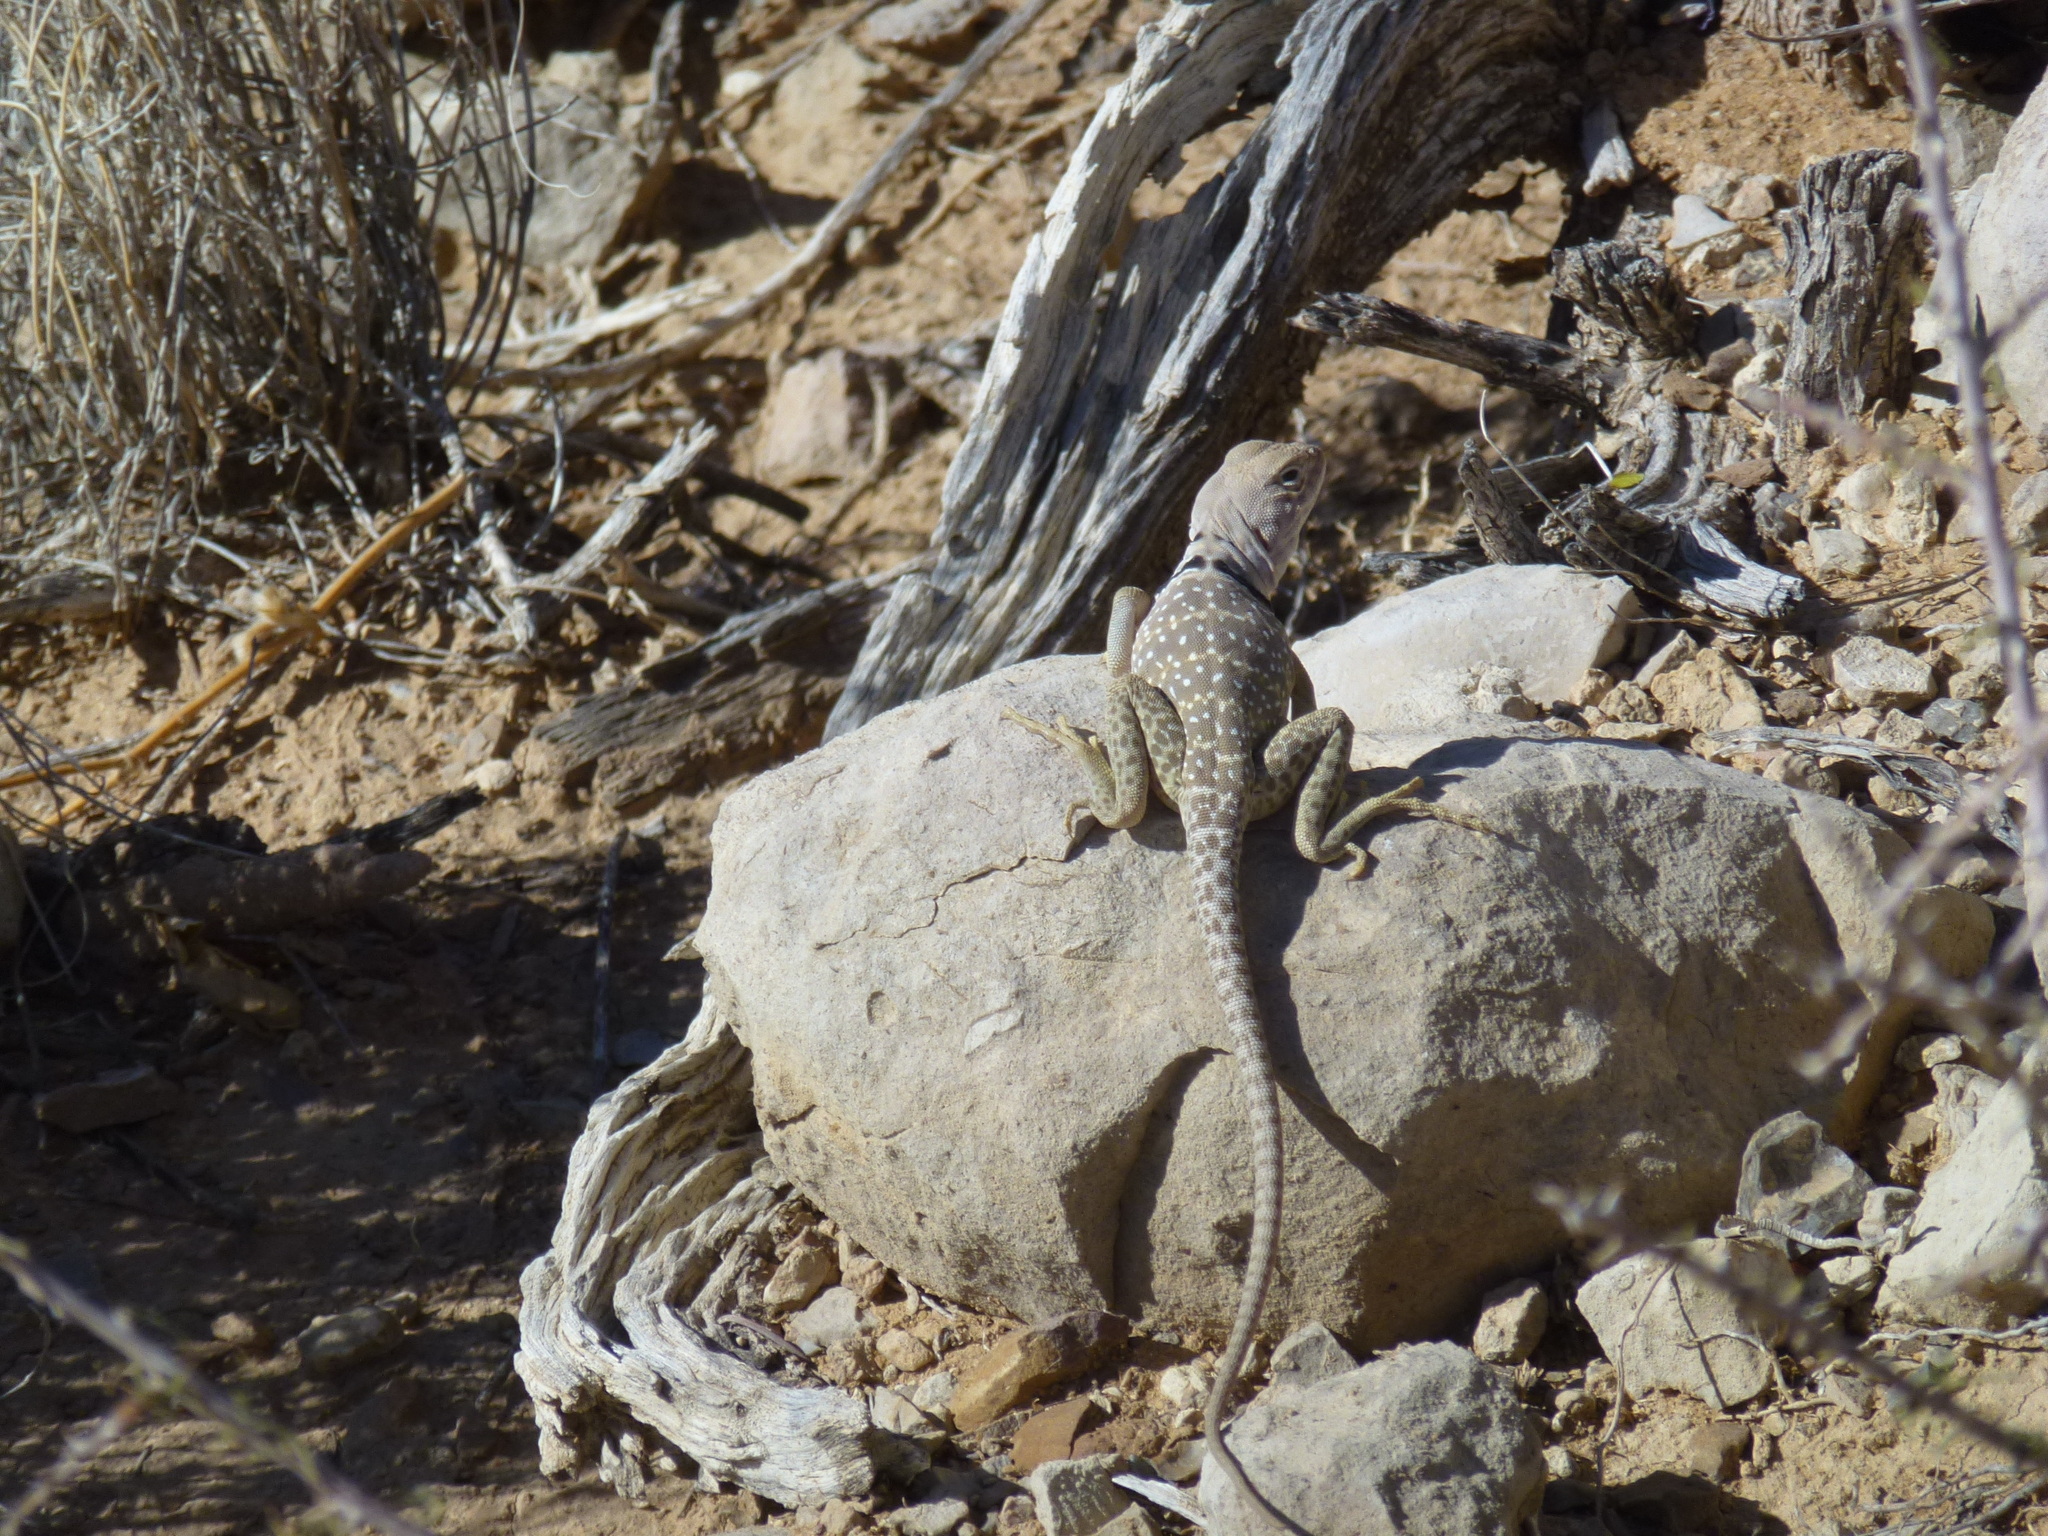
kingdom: Animalia
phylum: Chordata
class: Squamata
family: Crotaphytidae
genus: Crotaphytus
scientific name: Crotaphytus collaris
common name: Collared lizard
